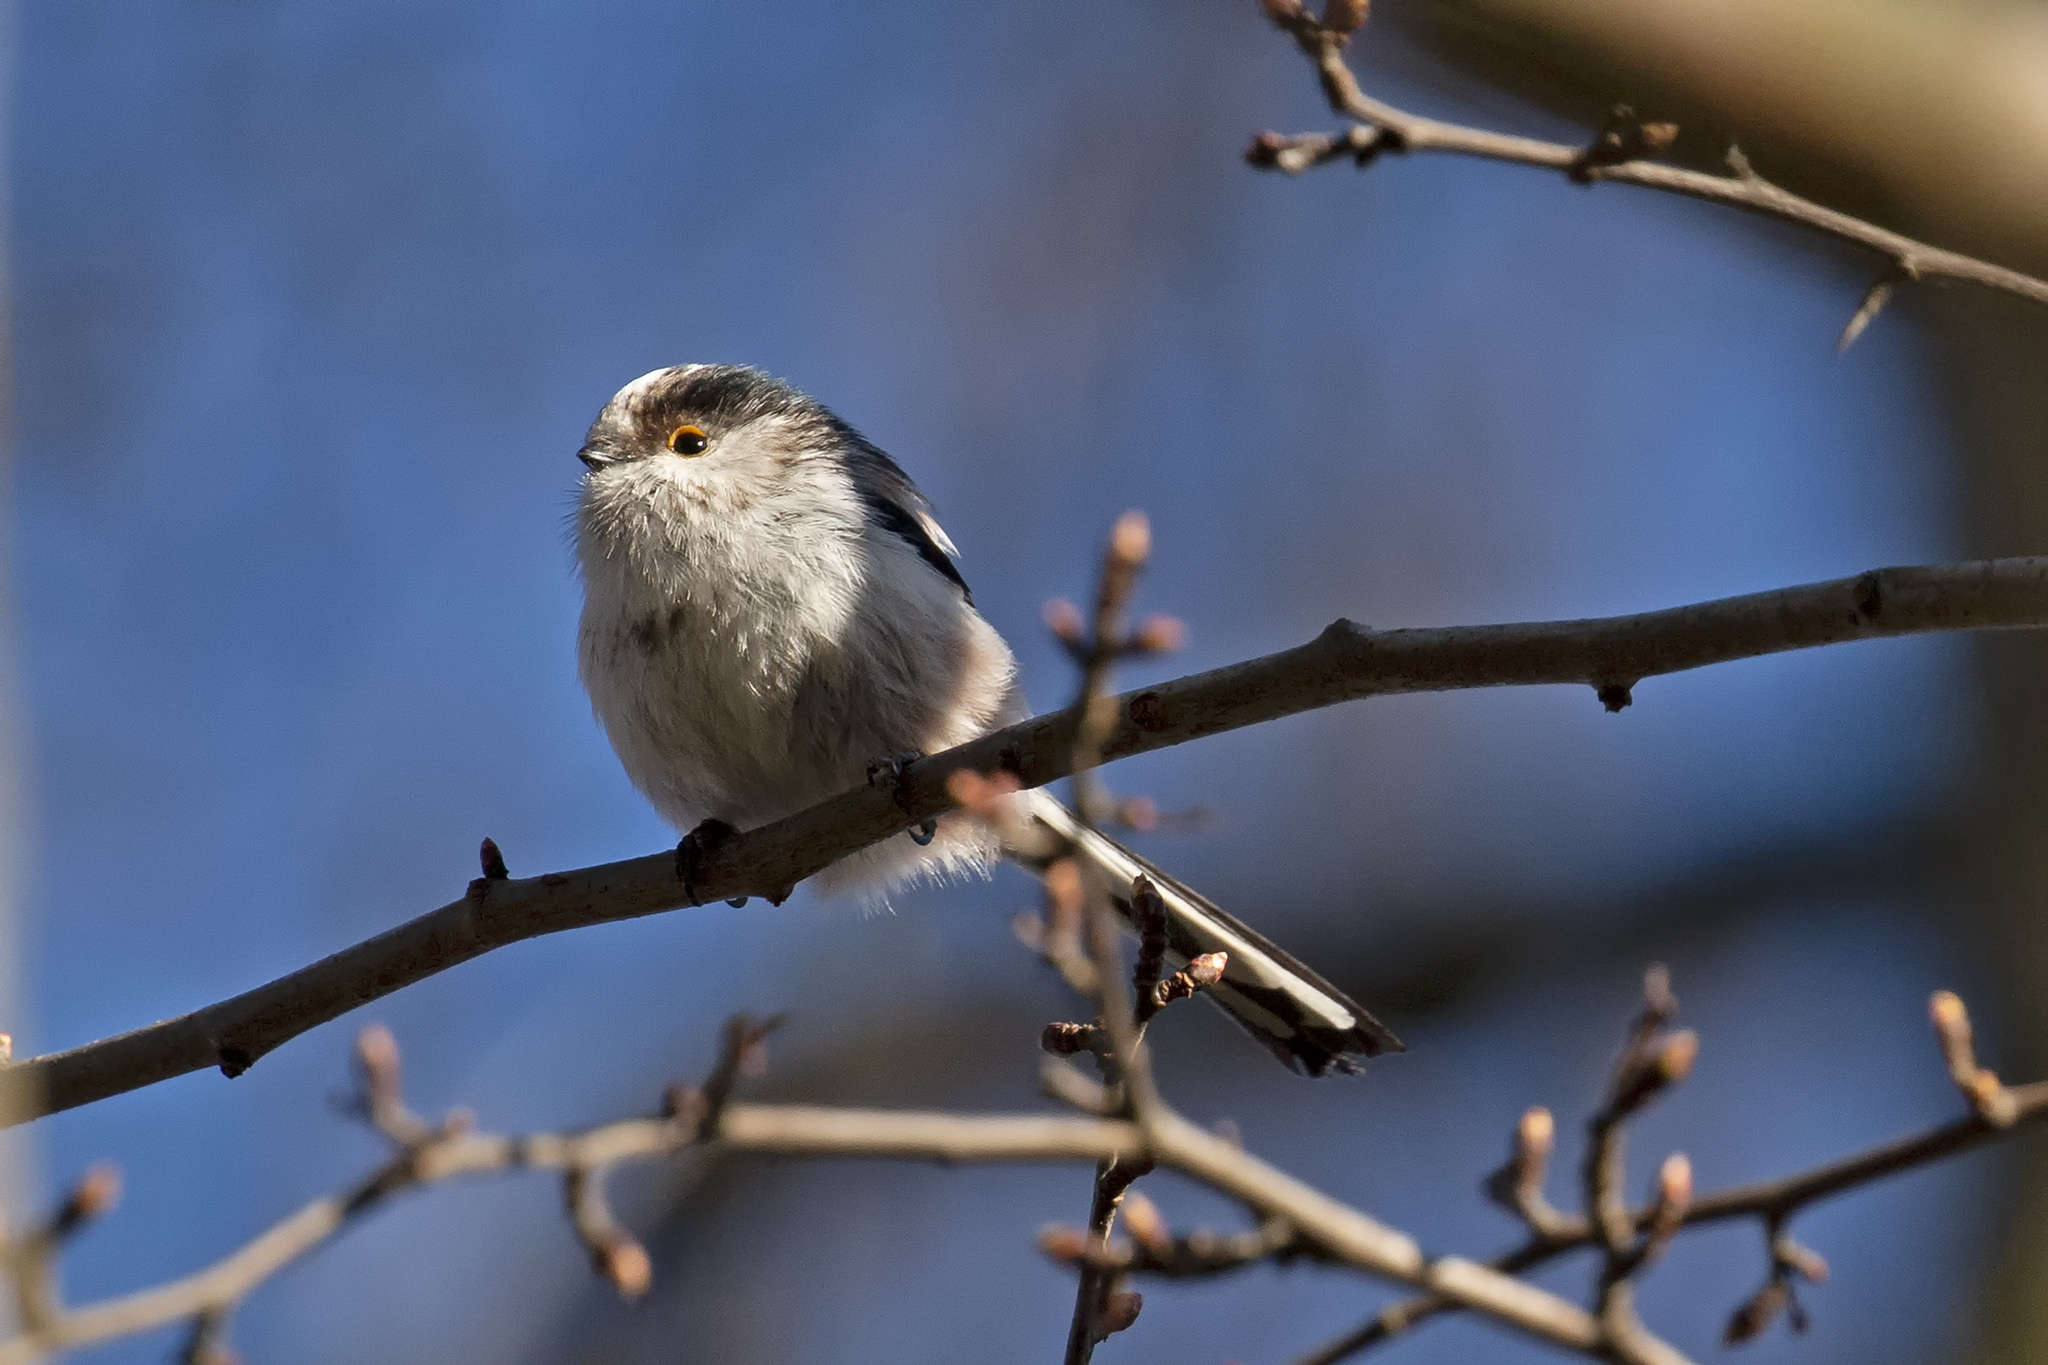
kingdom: Animalia
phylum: Chordata
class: Aves
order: Passeriformes
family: Aegithalidae
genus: Aegithalos
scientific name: Aegithalos caudatus
